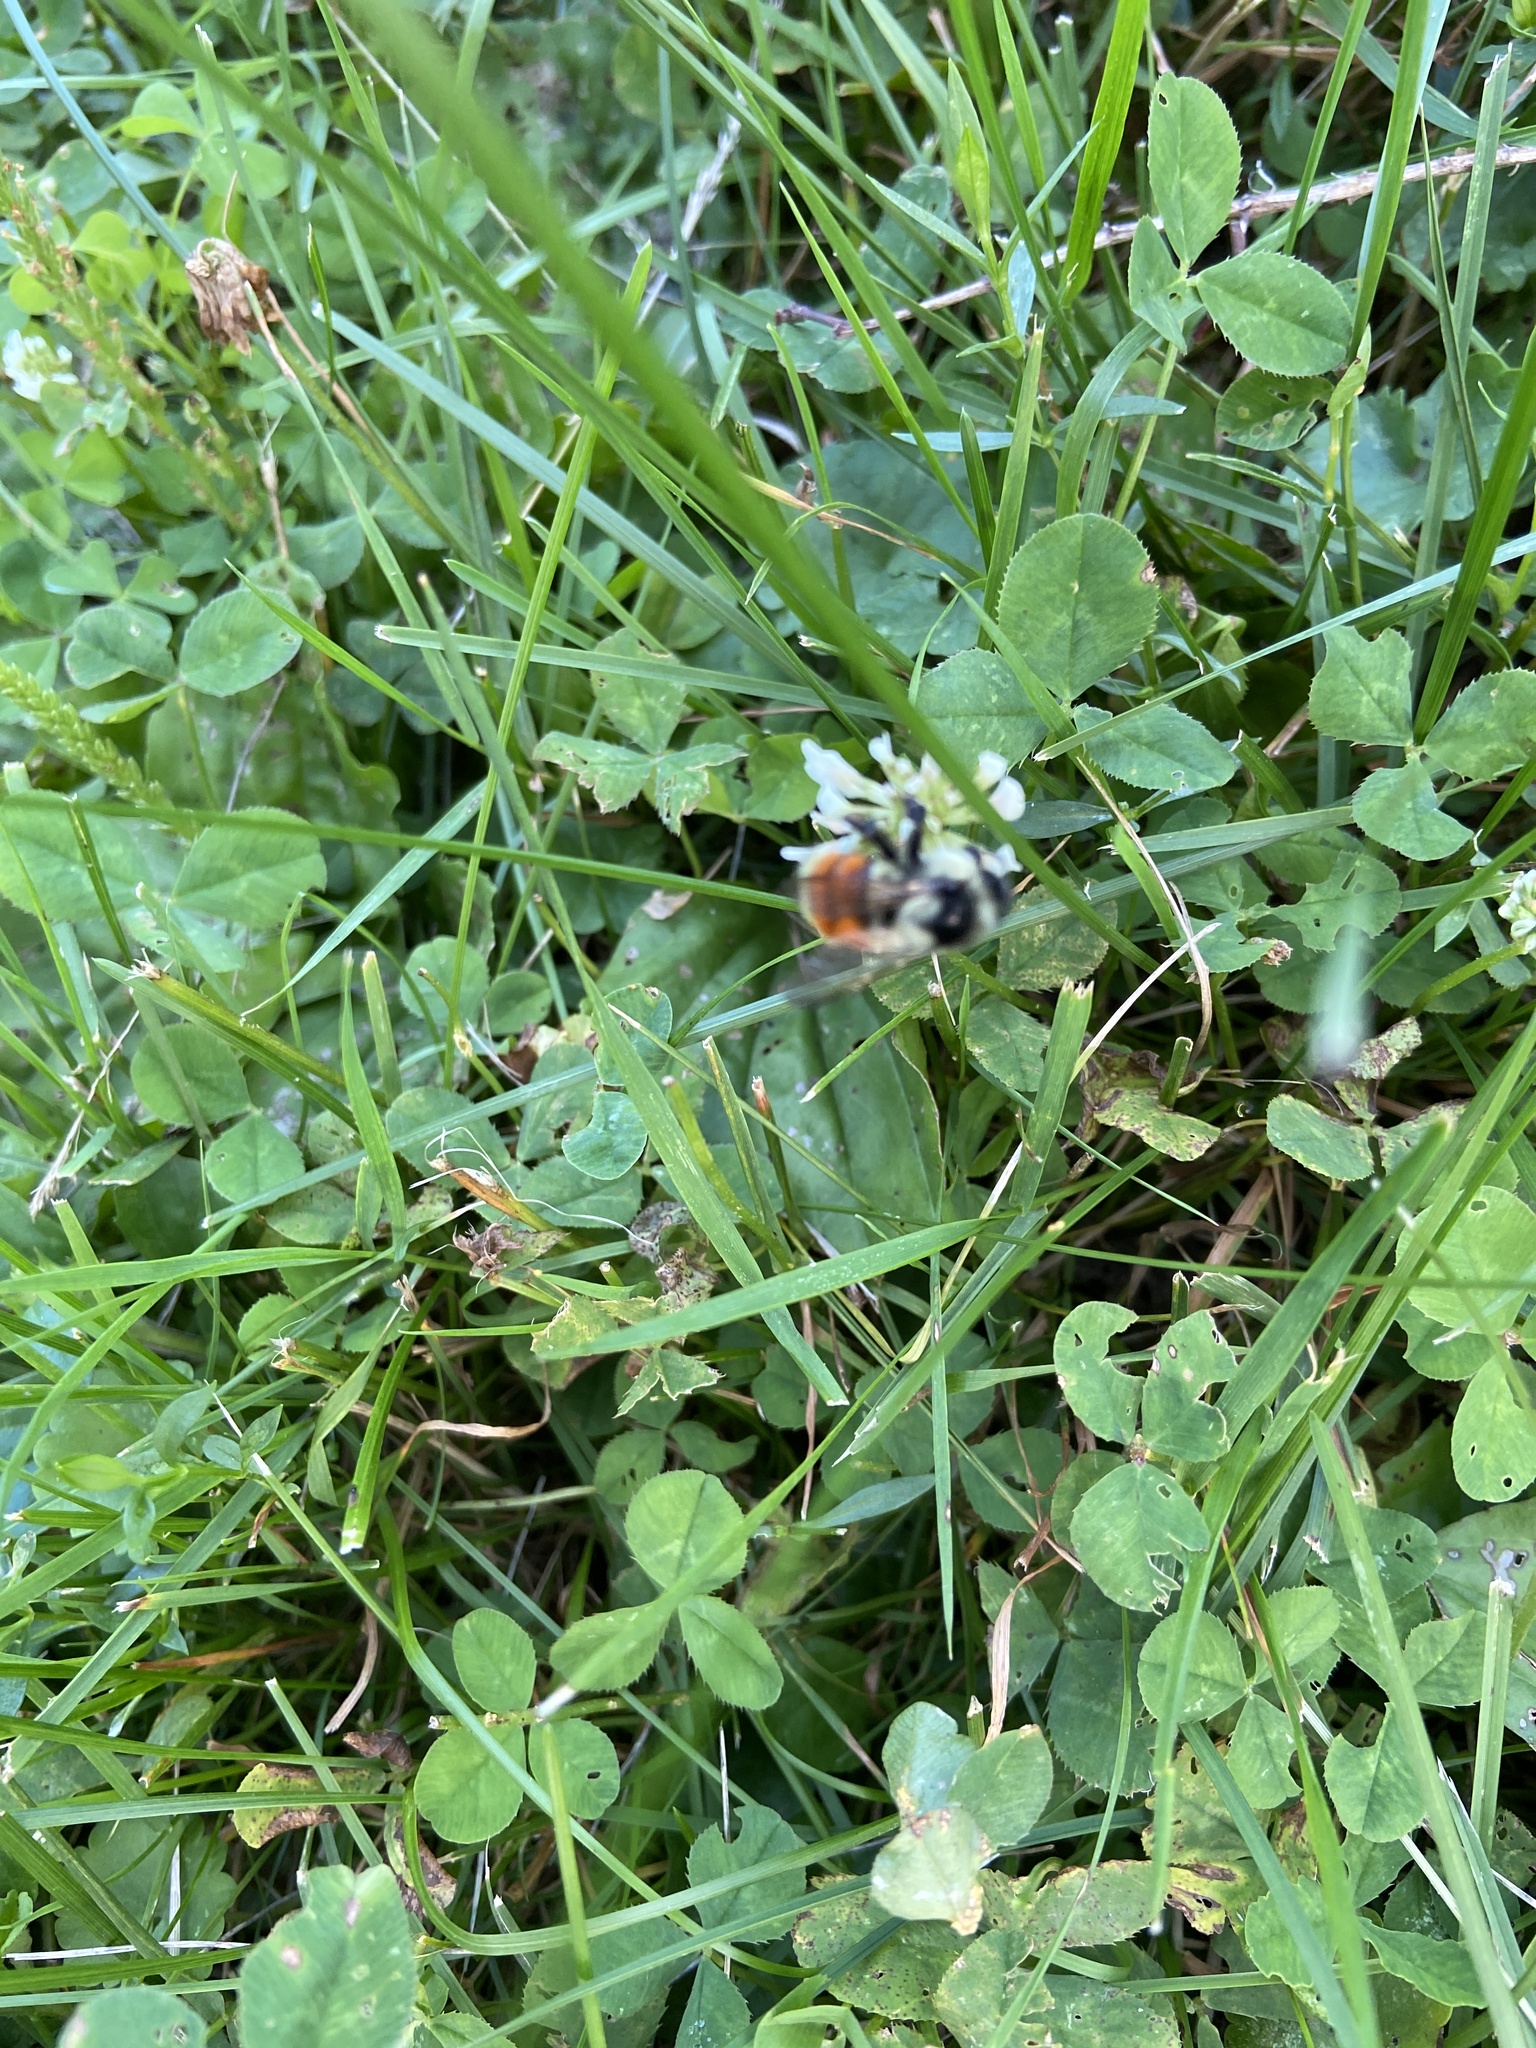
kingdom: Animalia
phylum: Arthropoda
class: Insecta
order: Hymenoptera
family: Apidae
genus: Bombus
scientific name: Bombus ternarius
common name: Tri-colored bumble bee
